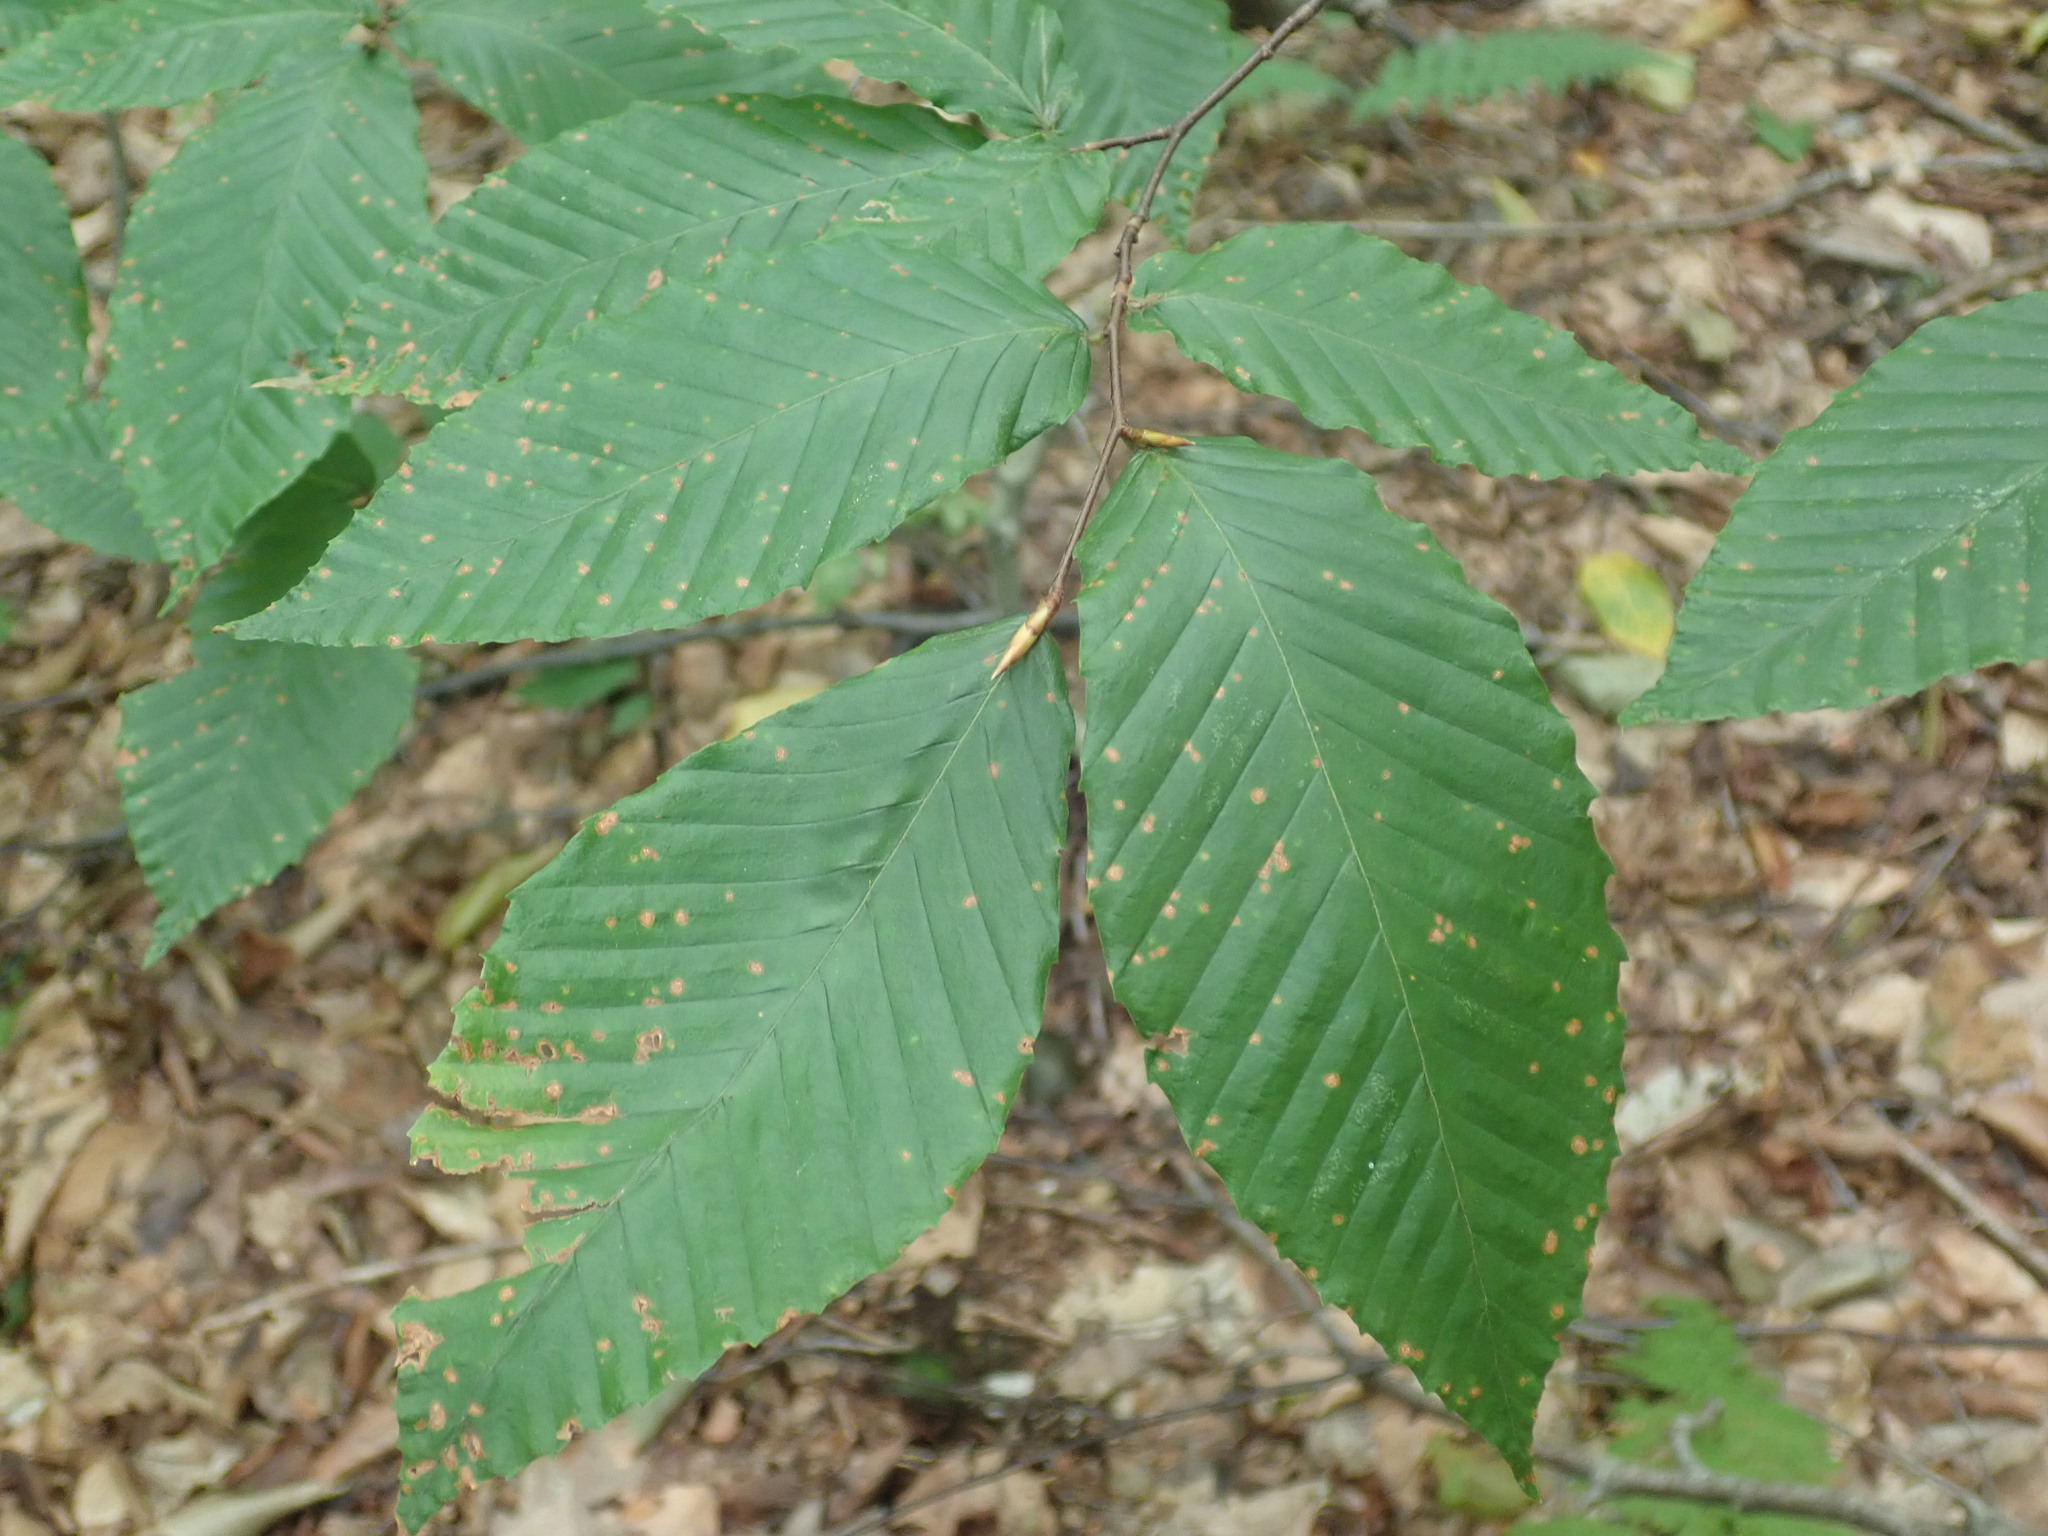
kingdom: Plantae
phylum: Tracheophyta
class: Magnoliopsida
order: Fagales
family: Fagaceae
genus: Fagus
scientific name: Fagus grandifolia
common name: American beech
